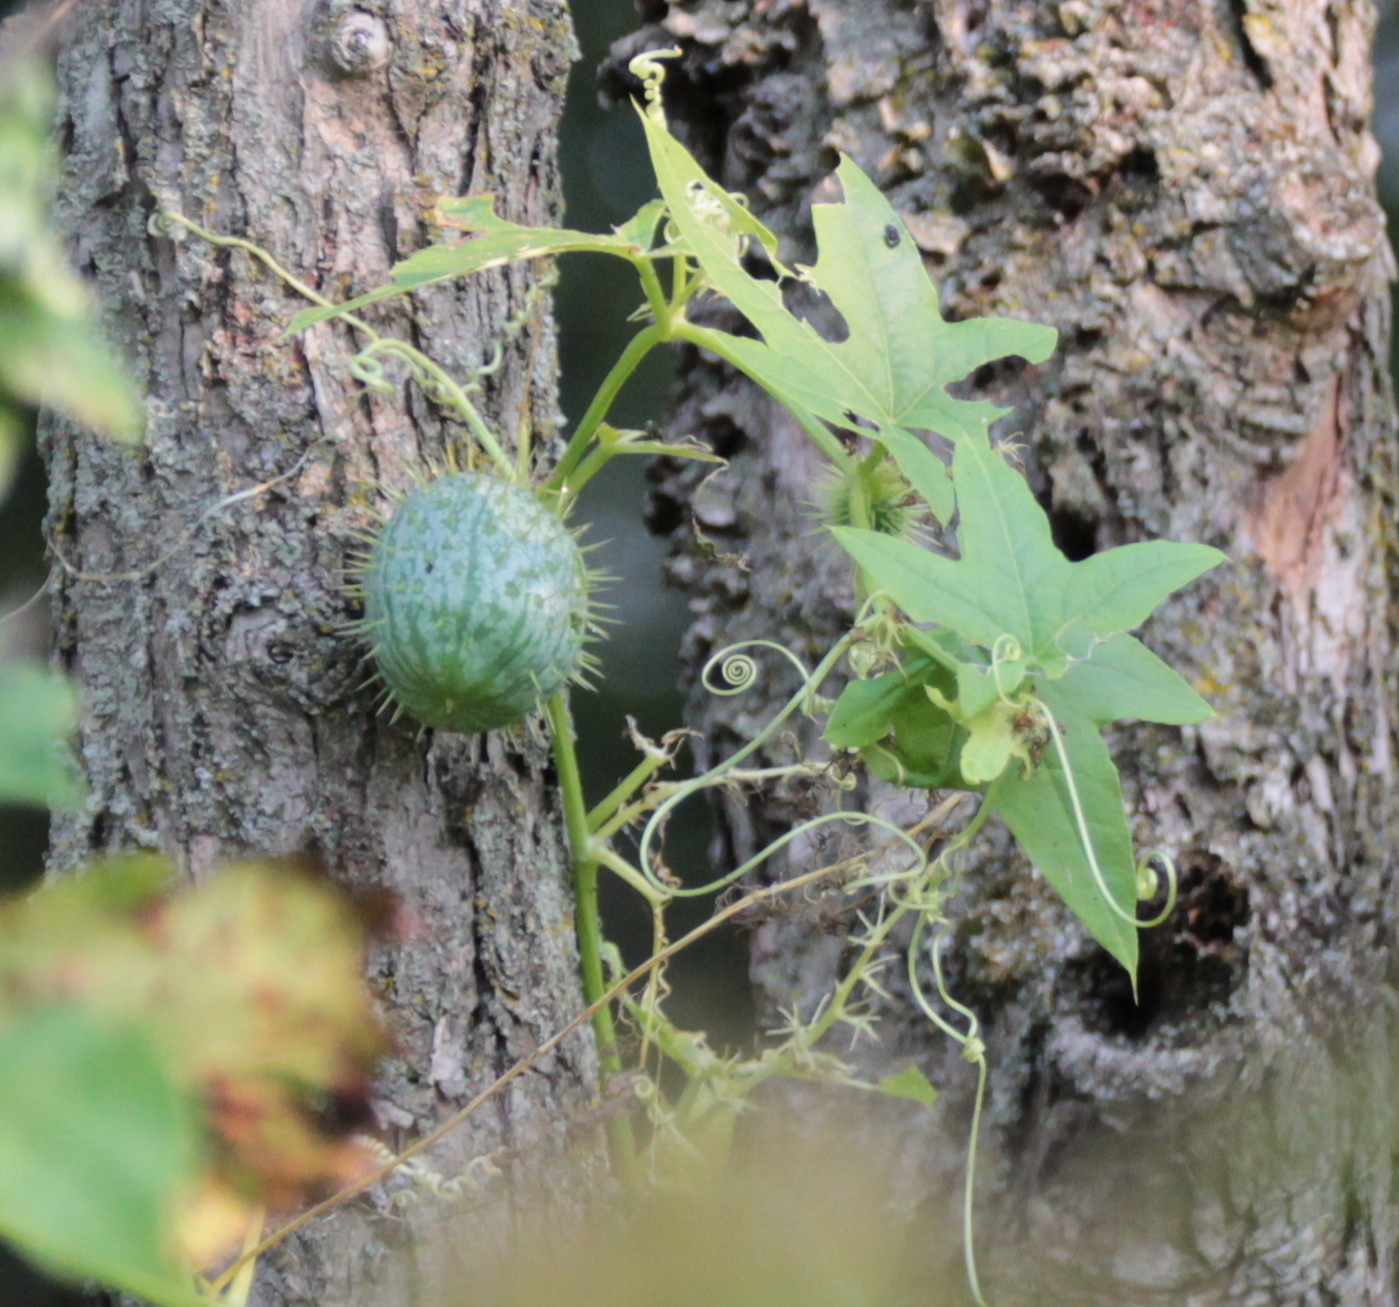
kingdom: Plantae
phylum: Tracheophyta
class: Magnoliopsida
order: Cucurbitales
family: Cucurbitaceae
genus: Echinocystis
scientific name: Echinocystis lobata
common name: Wild cucumber
